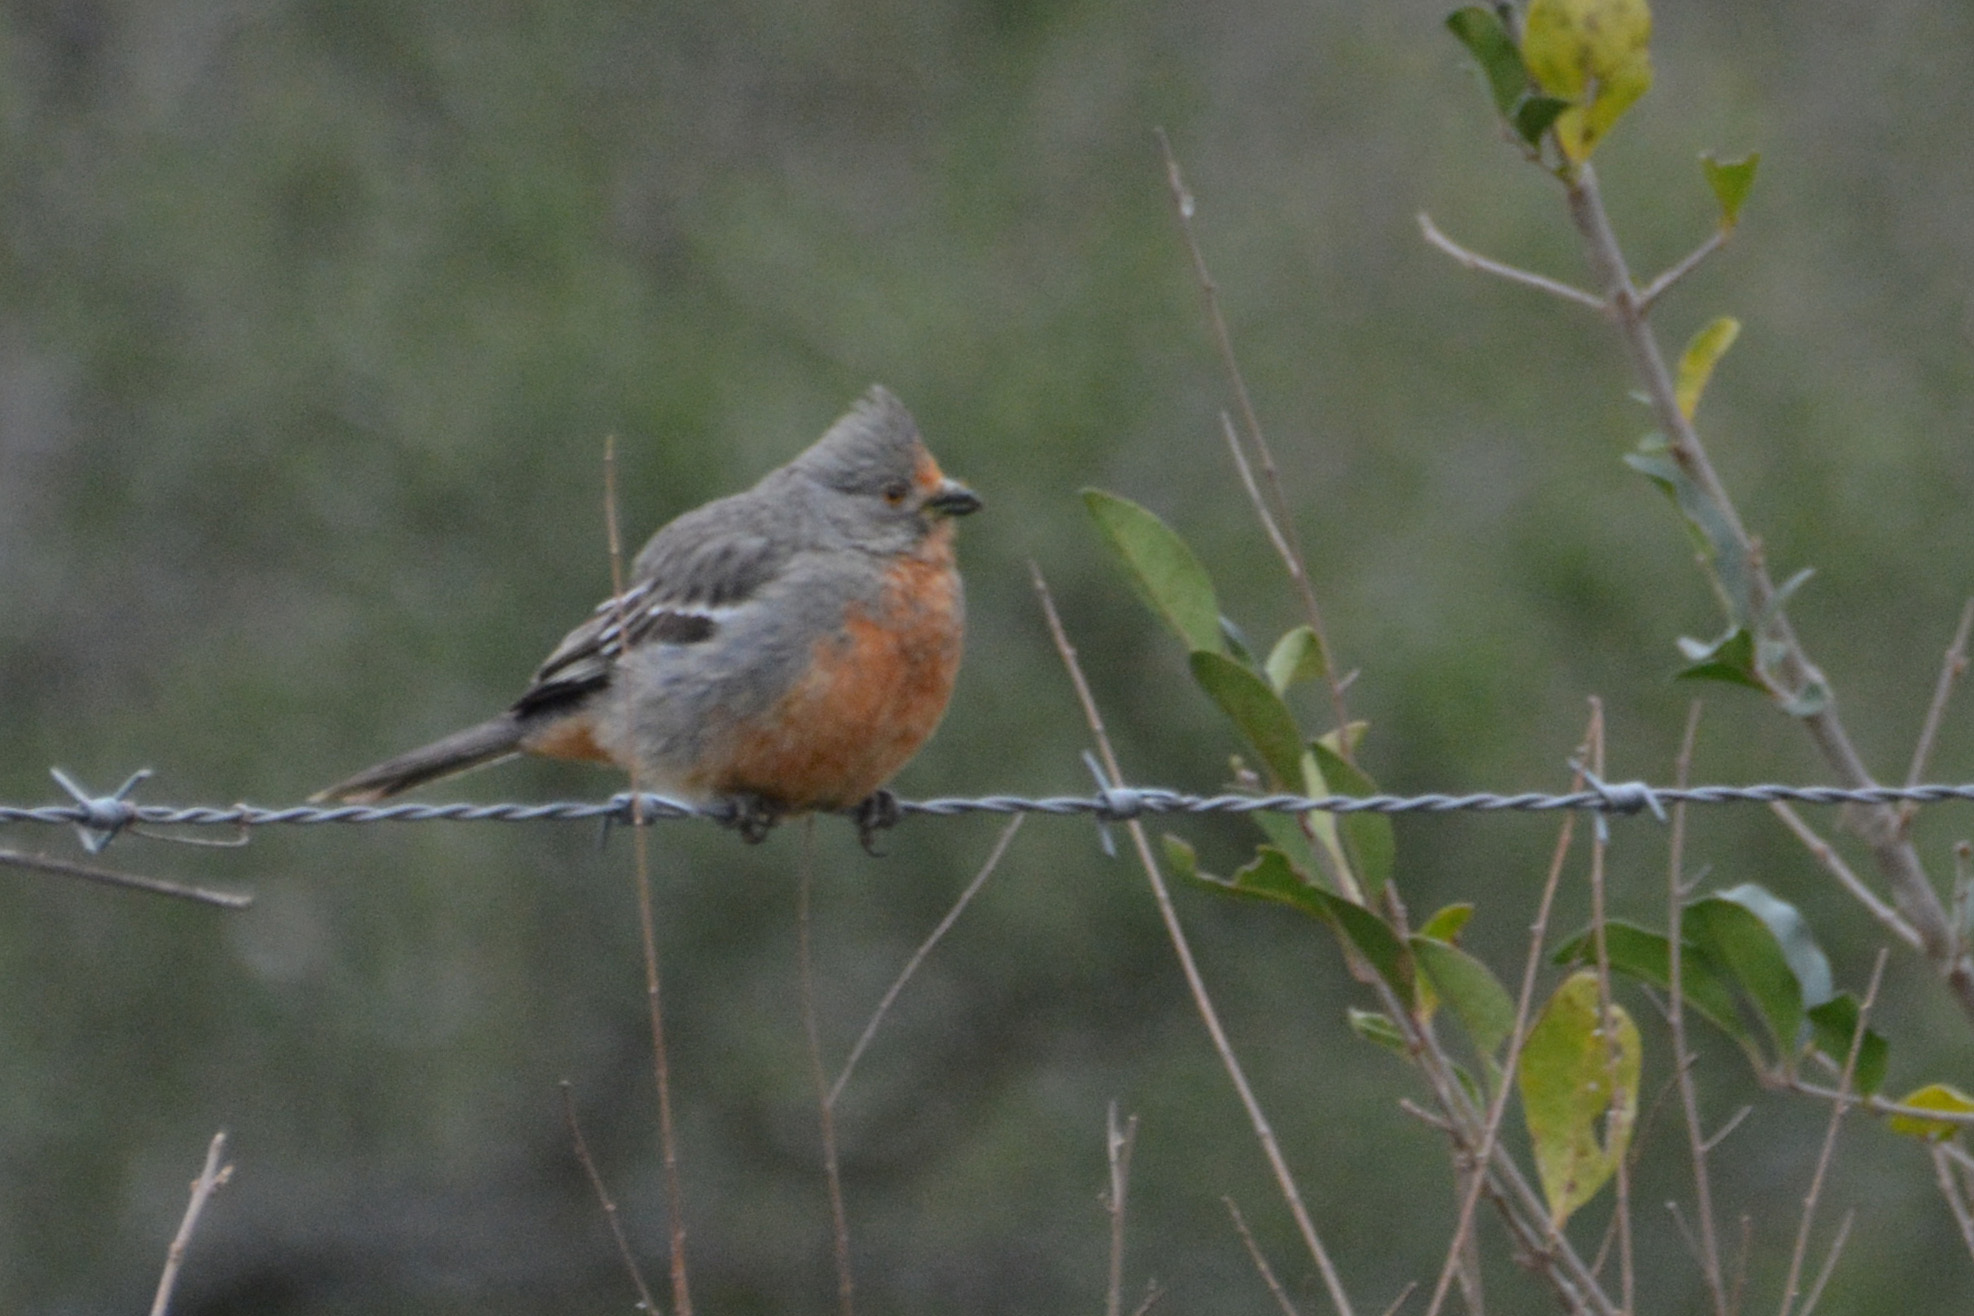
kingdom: Animalia
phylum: Chordata
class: Aves
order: Passeriformes
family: Cotingidae
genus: Phytotoma
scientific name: Phytotoma rutila
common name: White-tipped plantcutter
